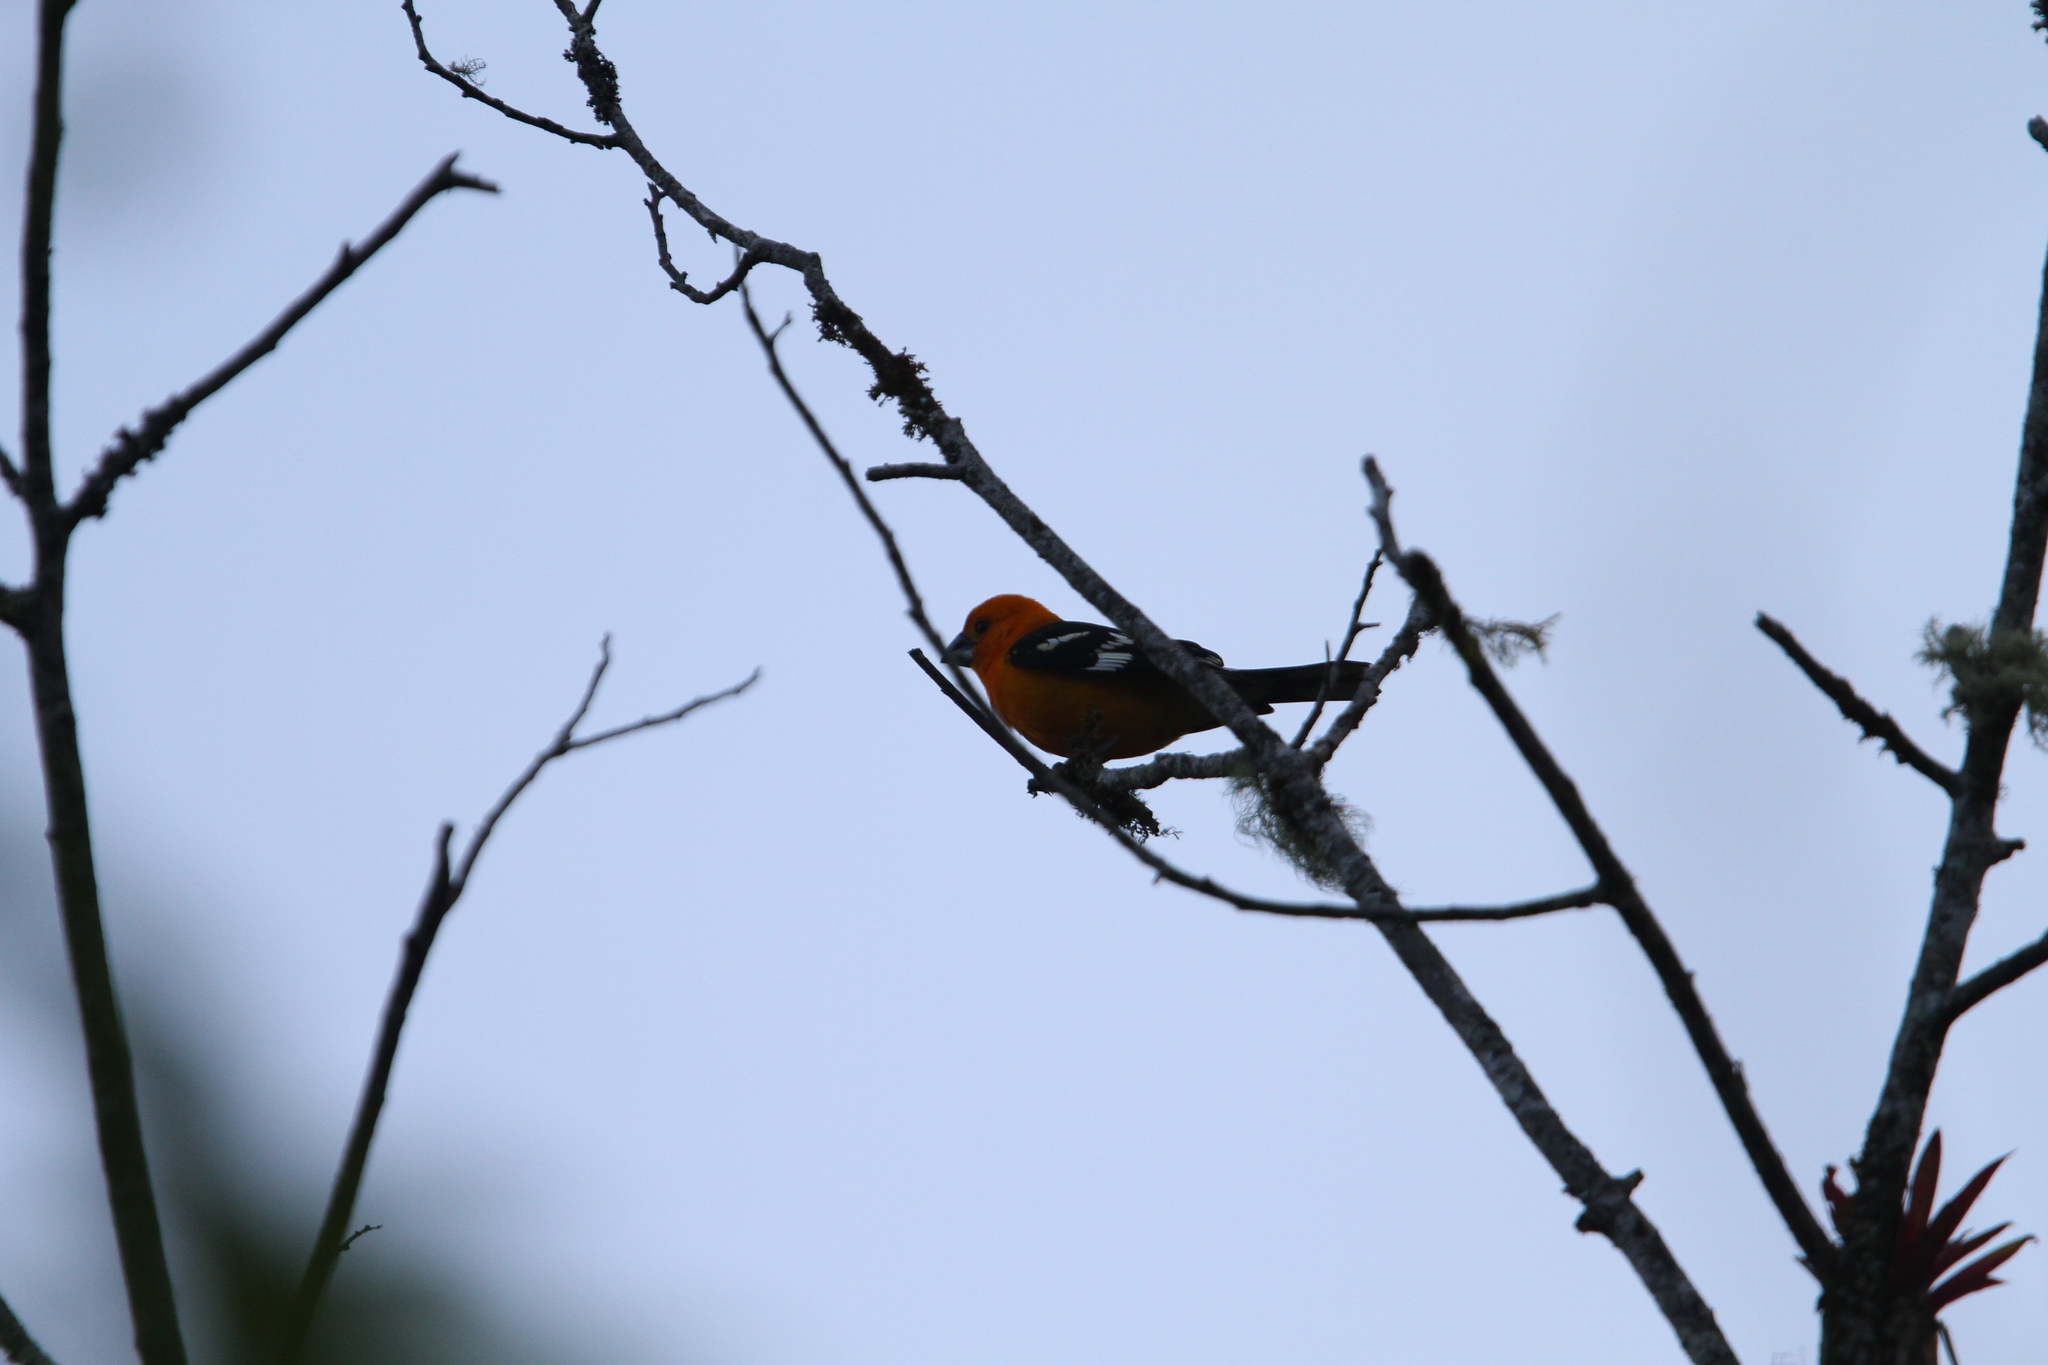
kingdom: Animalia
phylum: Chordata
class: Aves
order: Passeriformes
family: Cardinalidae
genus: Pheucticus
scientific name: Pheucticus chrysopeplus
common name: Yellow grosbeak
